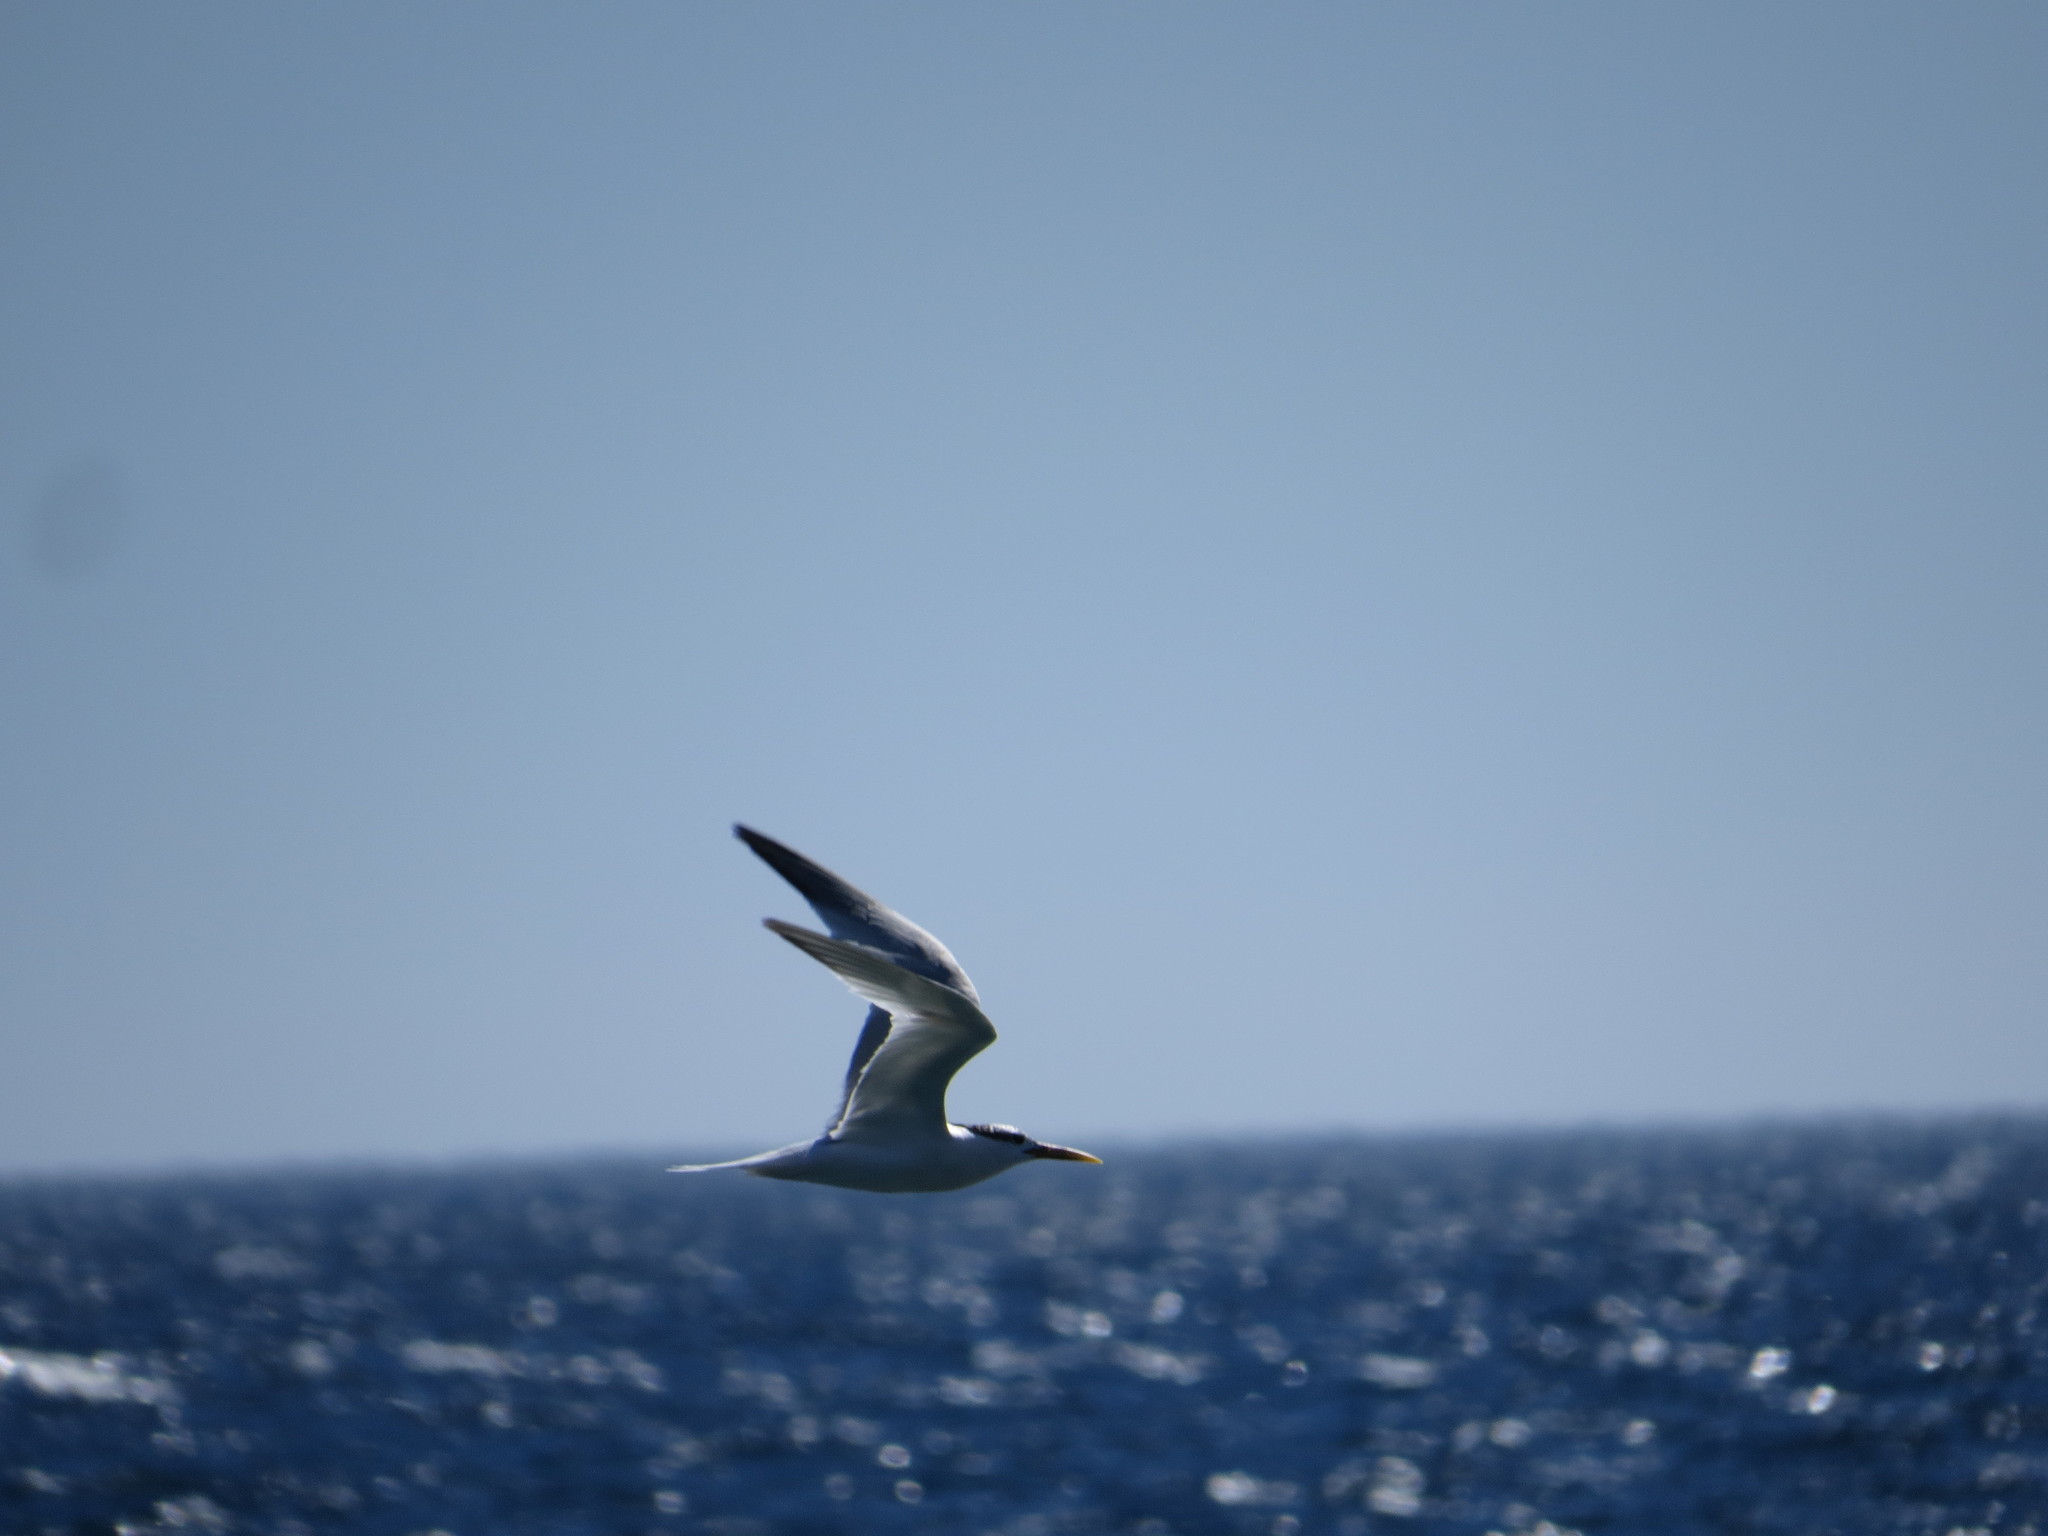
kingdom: Animalia
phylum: Chordata
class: Aves
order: Charadriiformes
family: Laridae
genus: Thalasseus
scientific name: Thalasseus sandvicensis
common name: Sandwich tern
